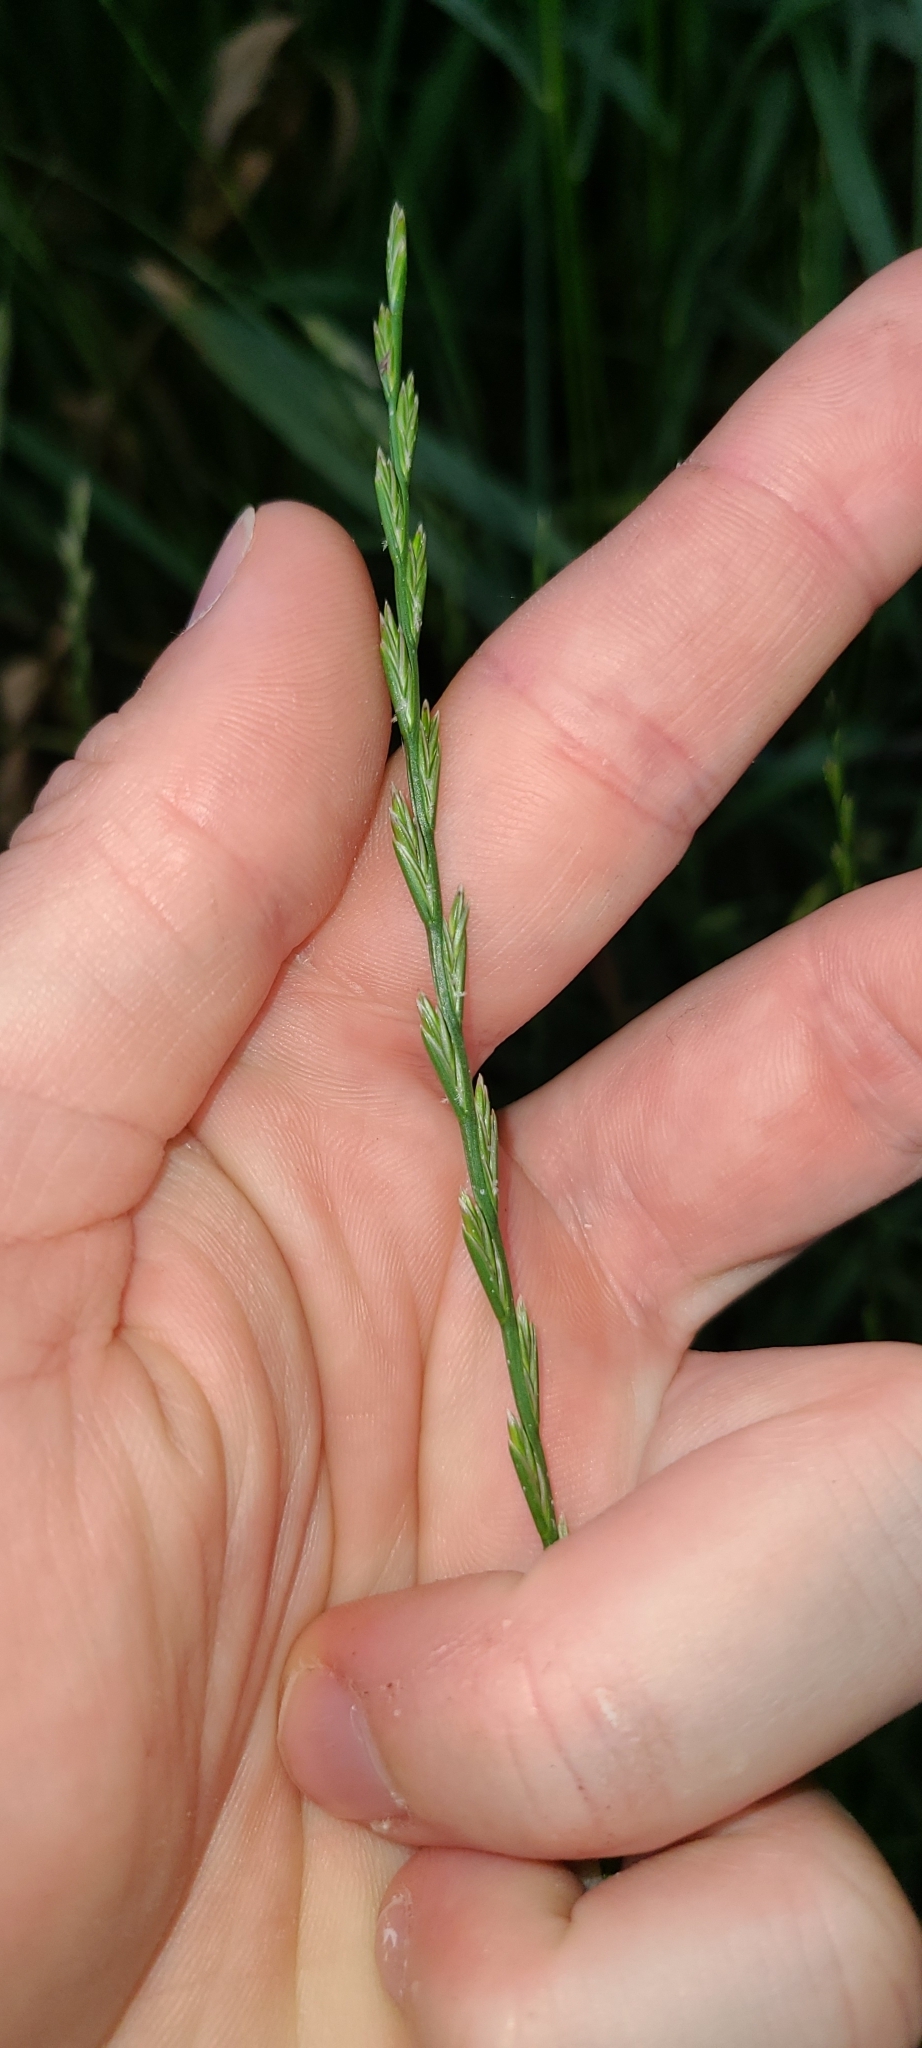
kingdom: Plantae
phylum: Tracheophyta
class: Liliopsida
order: Poales
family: Poaceae
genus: Lolium
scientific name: Lolium perenne
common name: Perennial ryegrass
